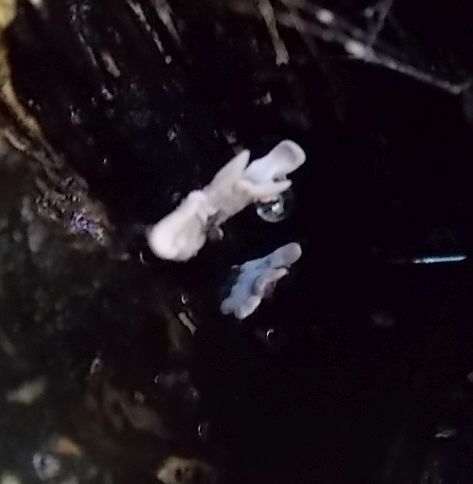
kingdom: Fungi
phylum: Ascomycota
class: Sordariomycetes
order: Xylariales
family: Xylariaceae
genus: Xylaria
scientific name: Xylaria hypoxylon
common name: Candle-snuff fungus
